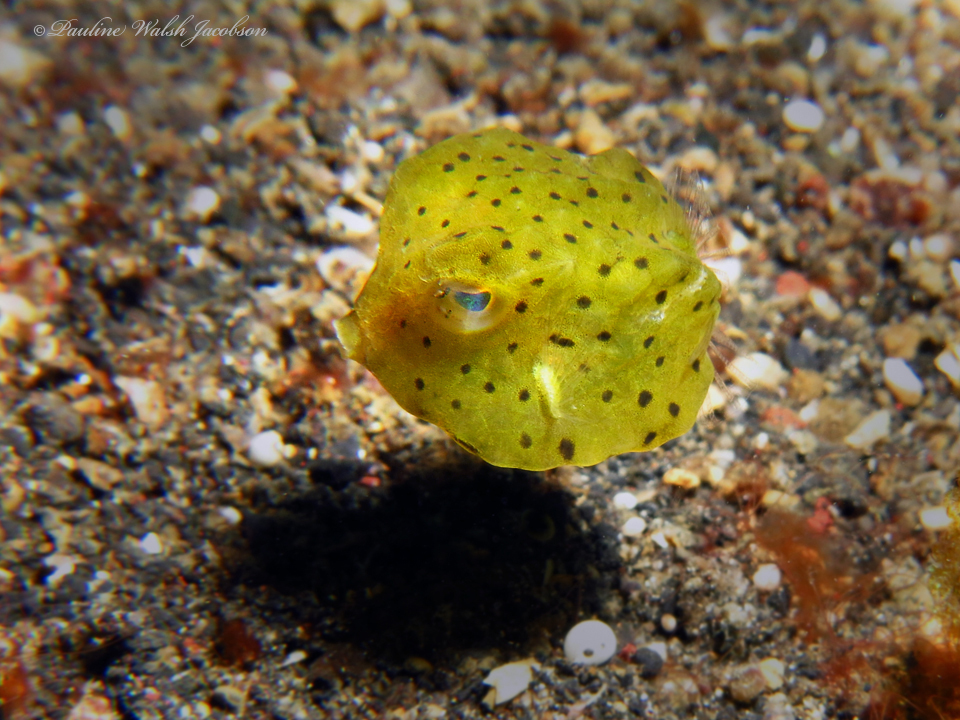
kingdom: Animalia
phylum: Chordata
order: Tetraodontiformes
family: Ostraciidae
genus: Lactoria
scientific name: Lactoria diaphana
